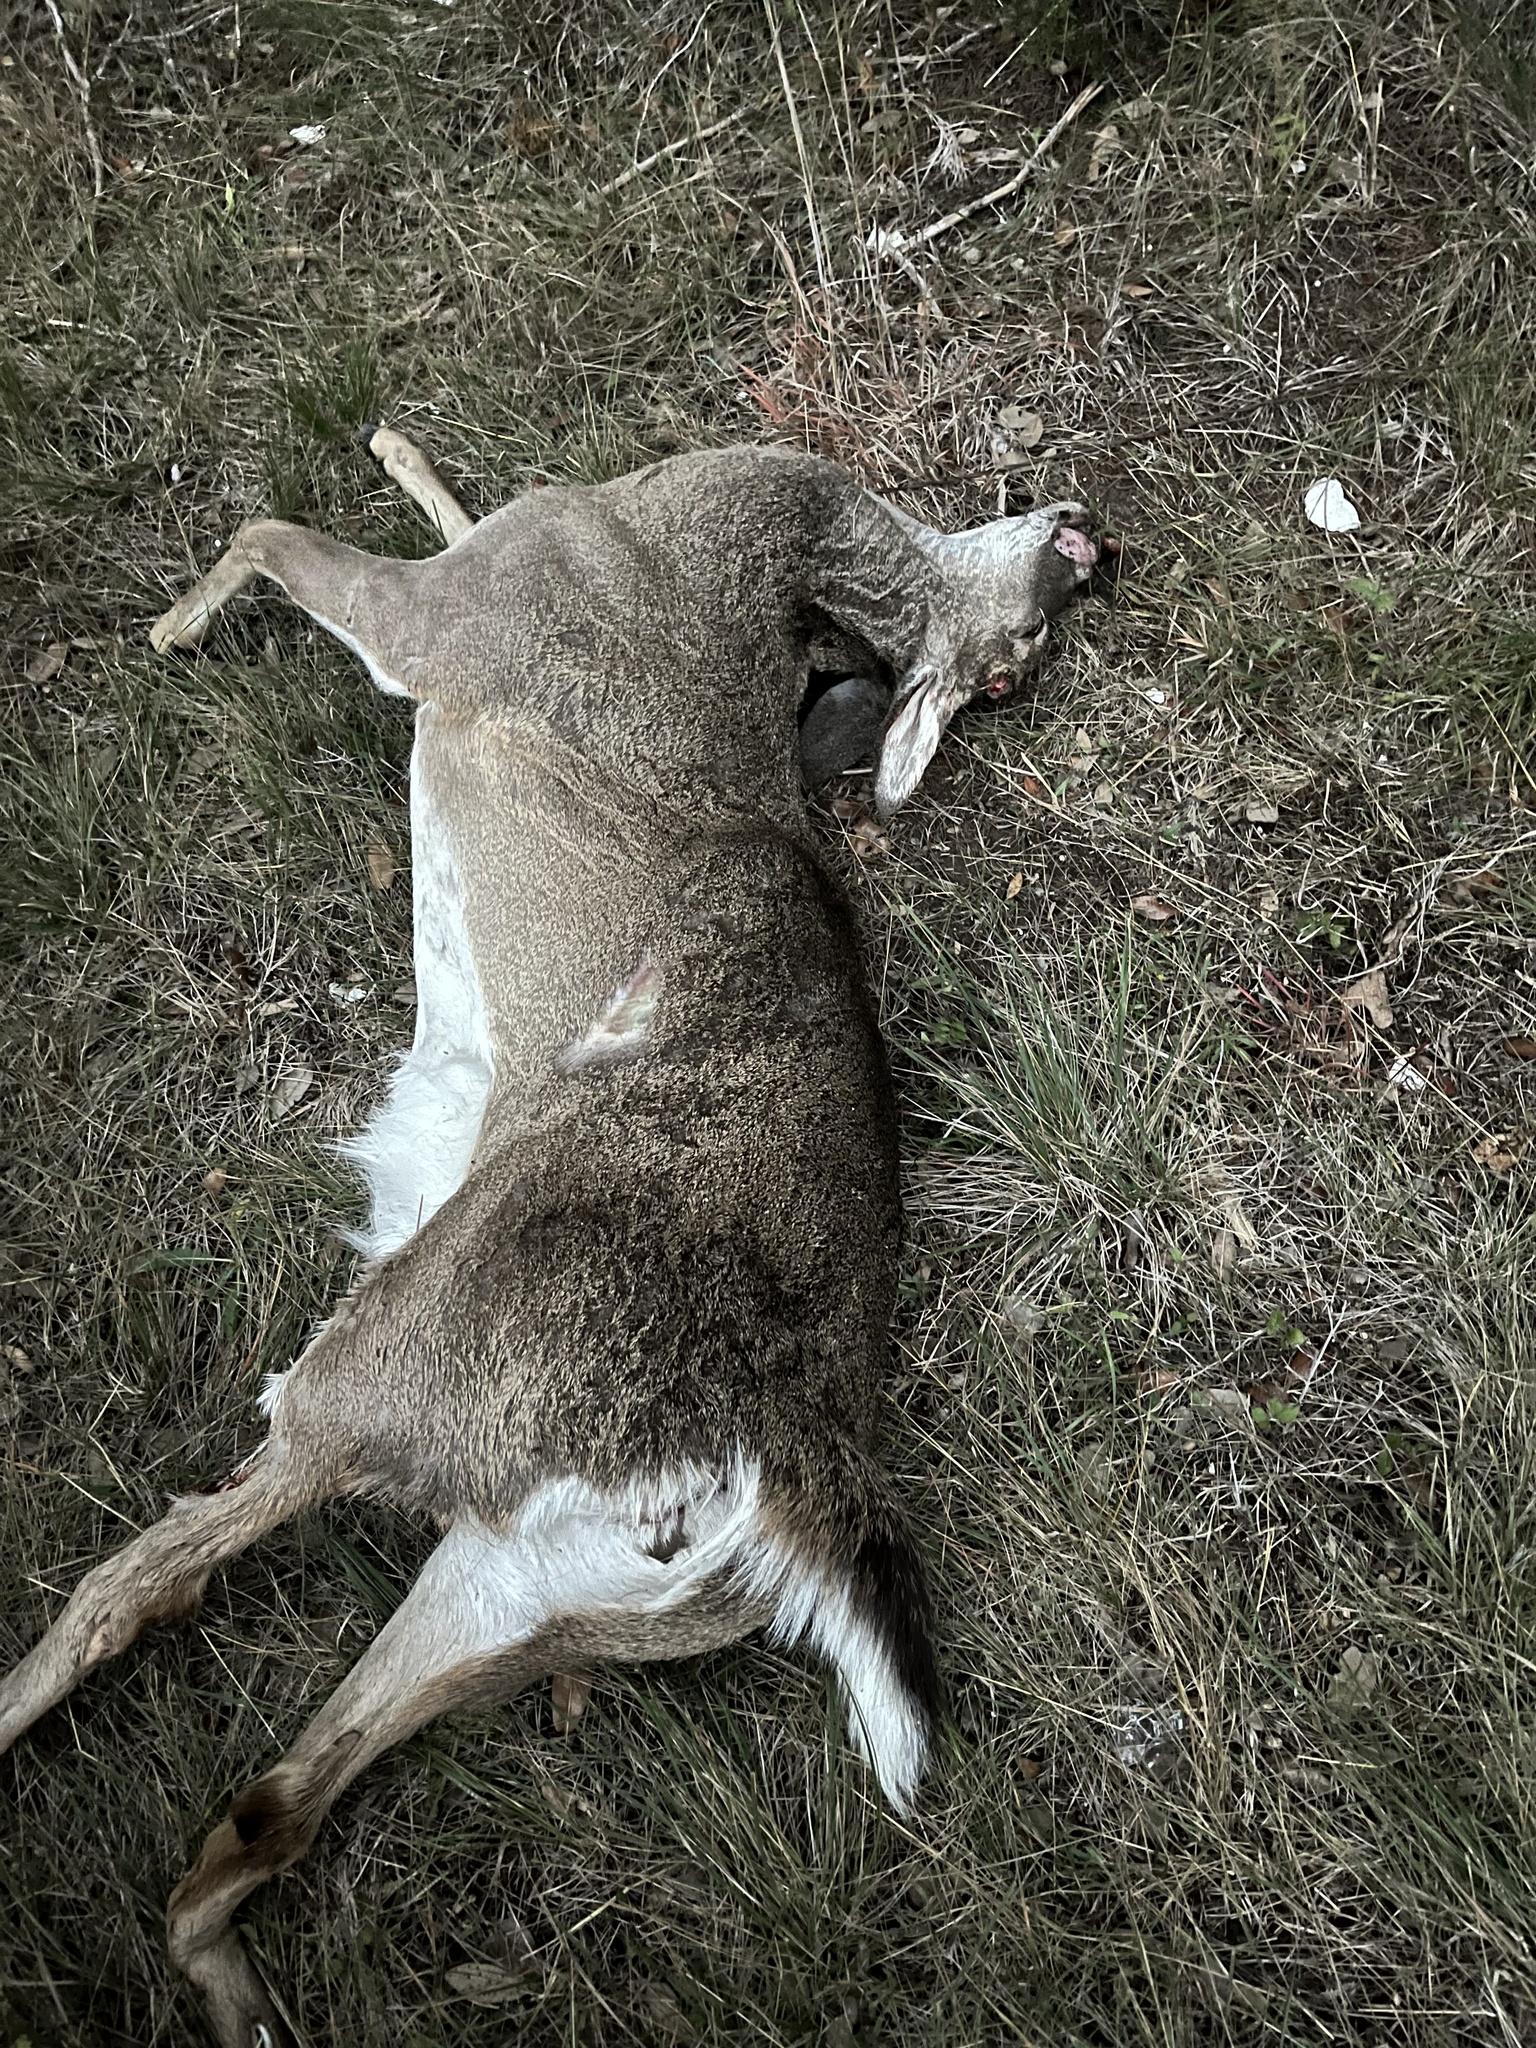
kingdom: Animalia
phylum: Chordata
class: Mammalia
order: Artiodactyla
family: Cervidae
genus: Odocoileus
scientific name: Odocoileus virginianus
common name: White-tailed deer
